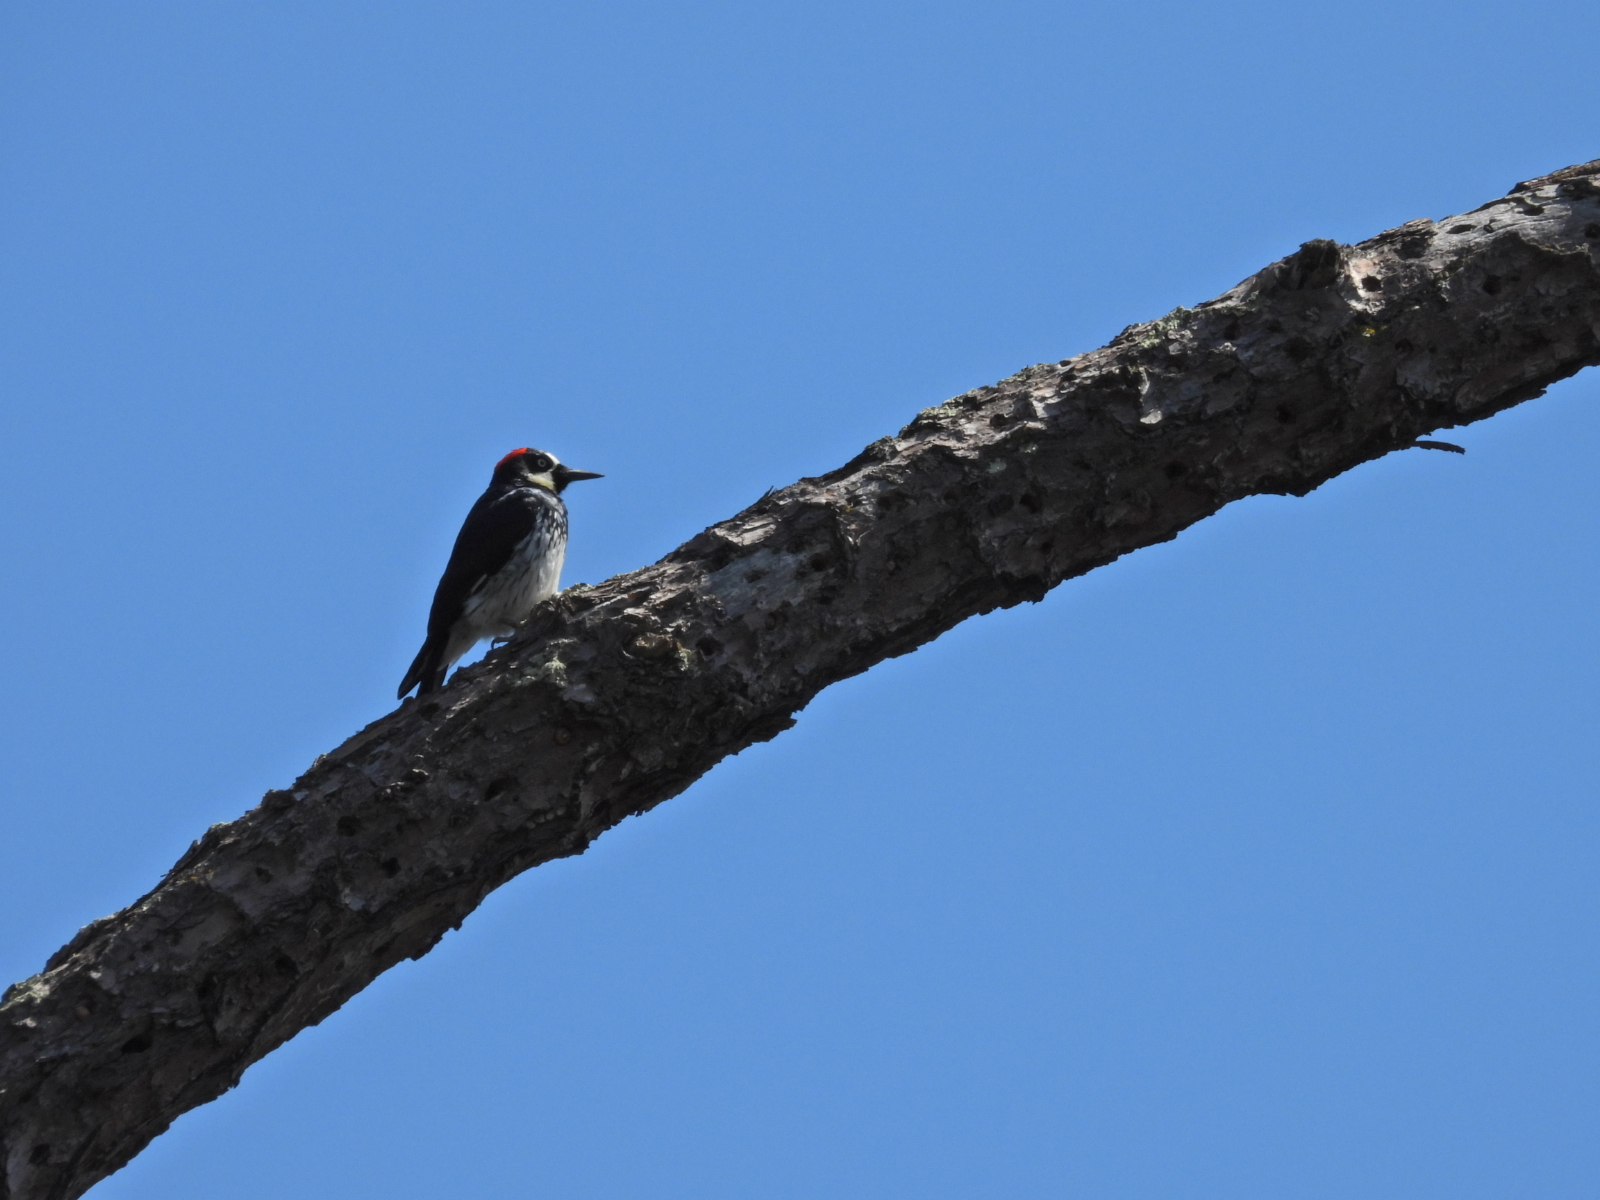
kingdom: Animalia
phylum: Chordata
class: Aves
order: Piciformes
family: Picidae
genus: Melanerpes
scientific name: Melanerpes formicivorus
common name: Acorn woodpecker
